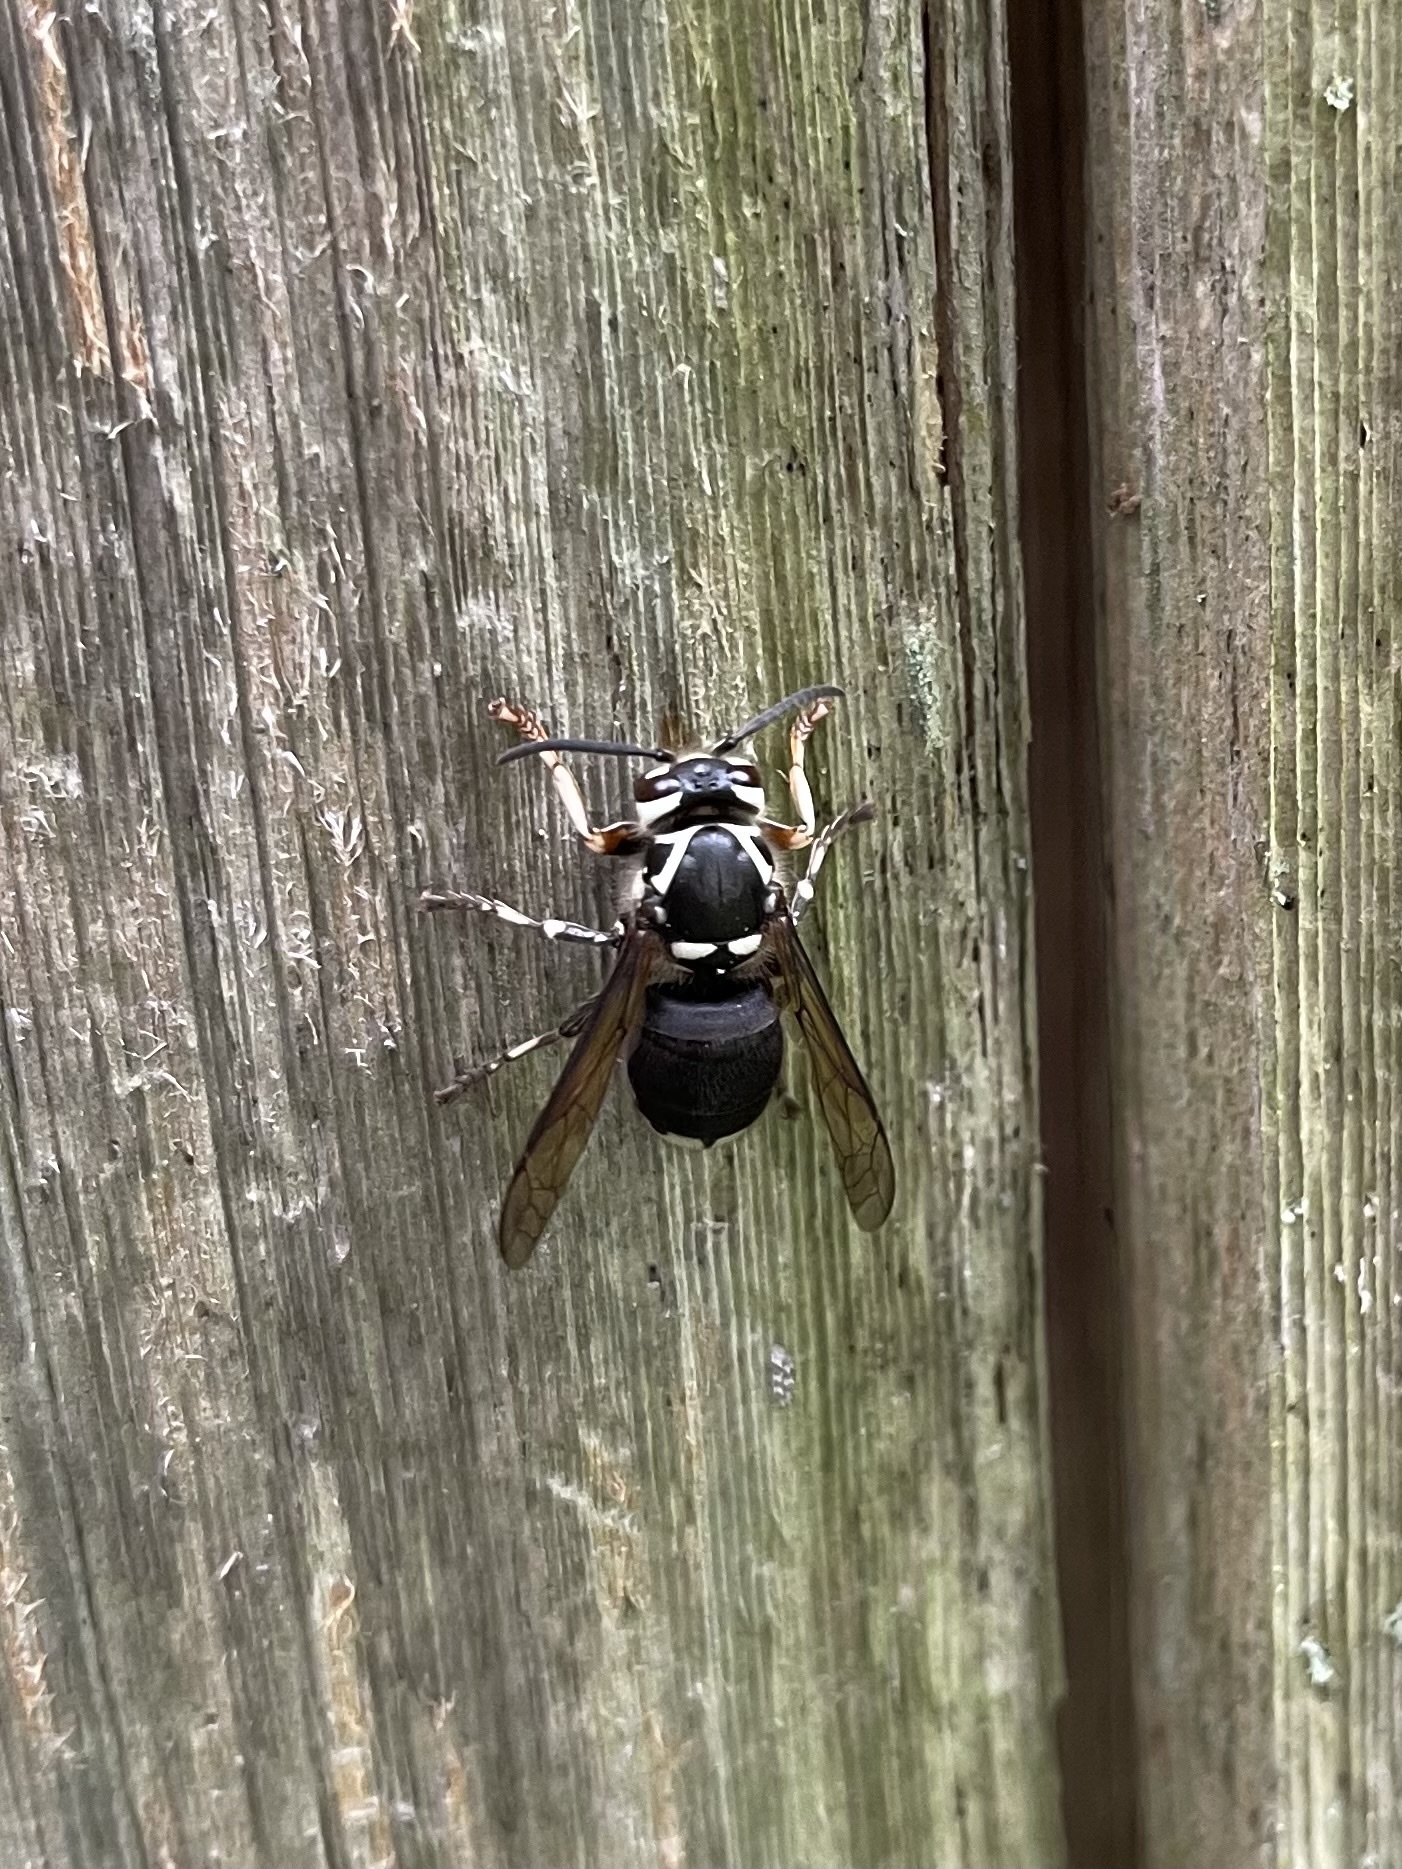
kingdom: Animalia
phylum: Arthropoda
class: Insecta
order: Hymenoptera
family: Vespidae
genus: Dolichovespula
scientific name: Dolichovespula maculata
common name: Bald-faced hornet
